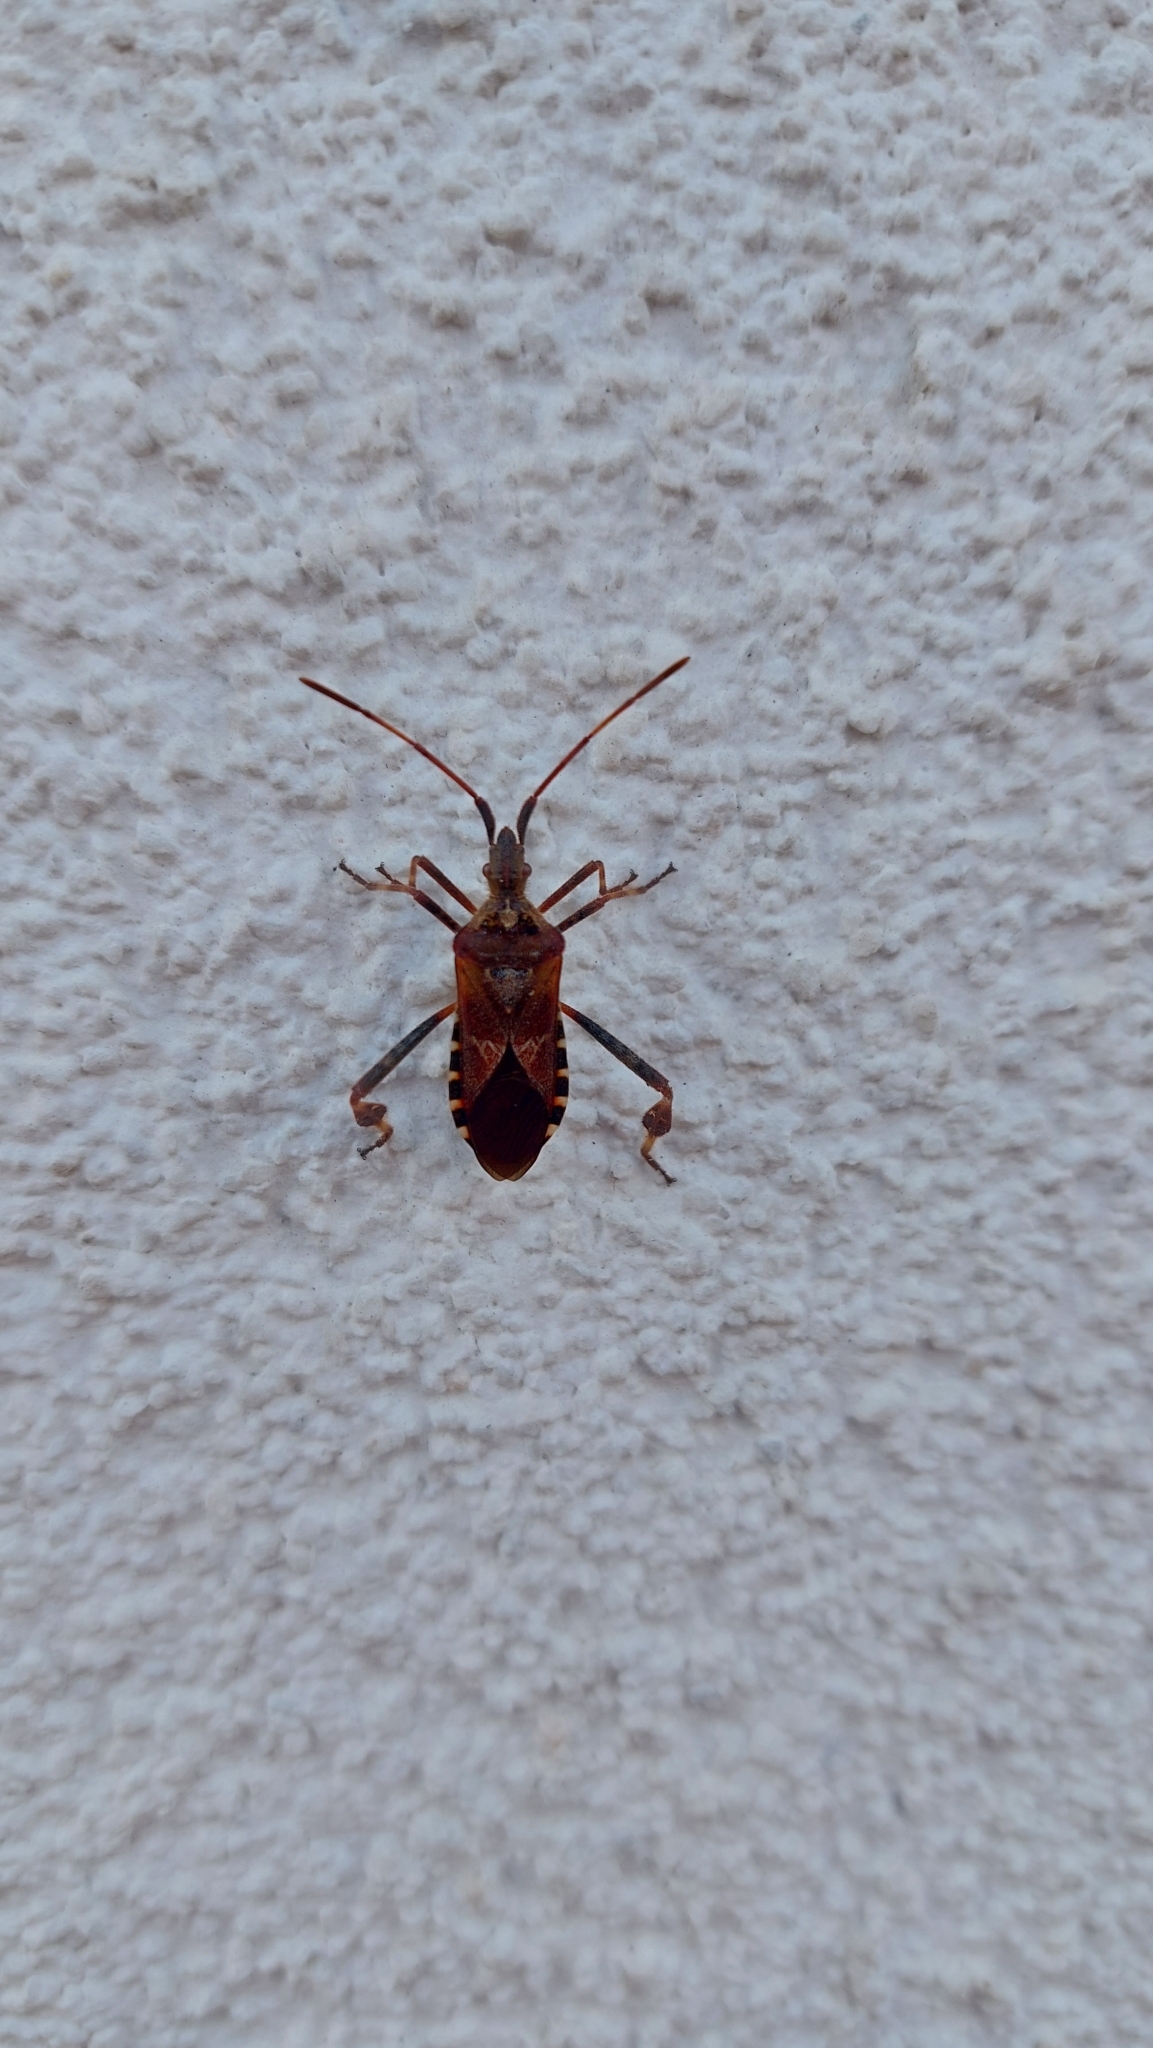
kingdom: Animalia
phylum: Arthropoda
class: Insecta
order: Hemiptera
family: Coreidae
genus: Leptoglossus
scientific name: Leptoglossus occidentalis
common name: Western conifer-seed bug
